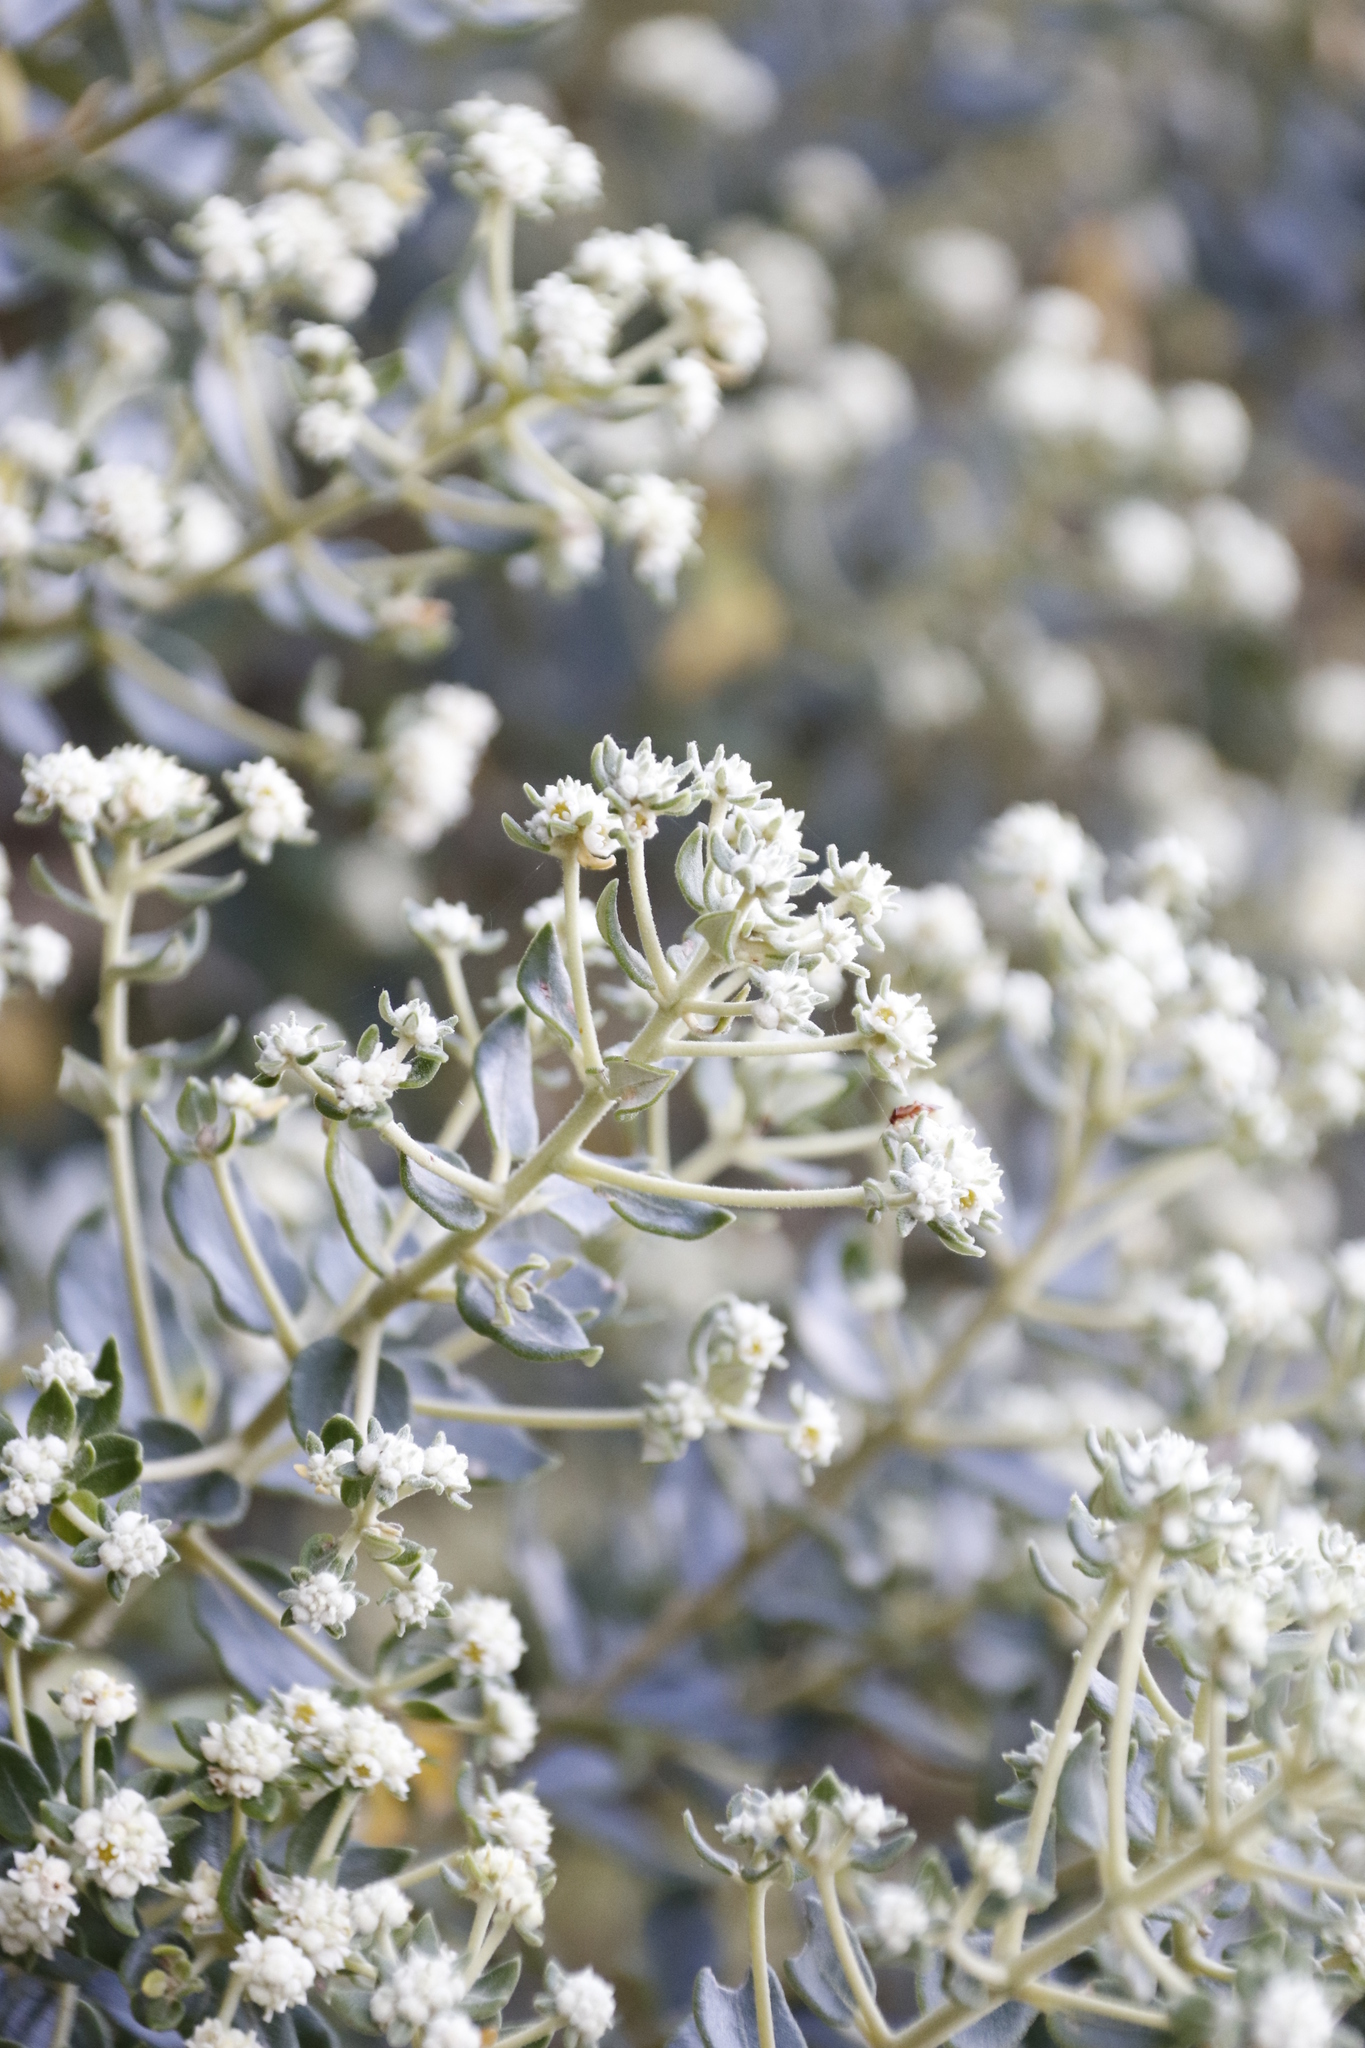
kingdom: Plantae
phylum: Tracheophyta
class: Magnoliopsida
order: Rosales
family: Rhamnaceae
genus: Phylica
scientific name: Phylica buxifolia
